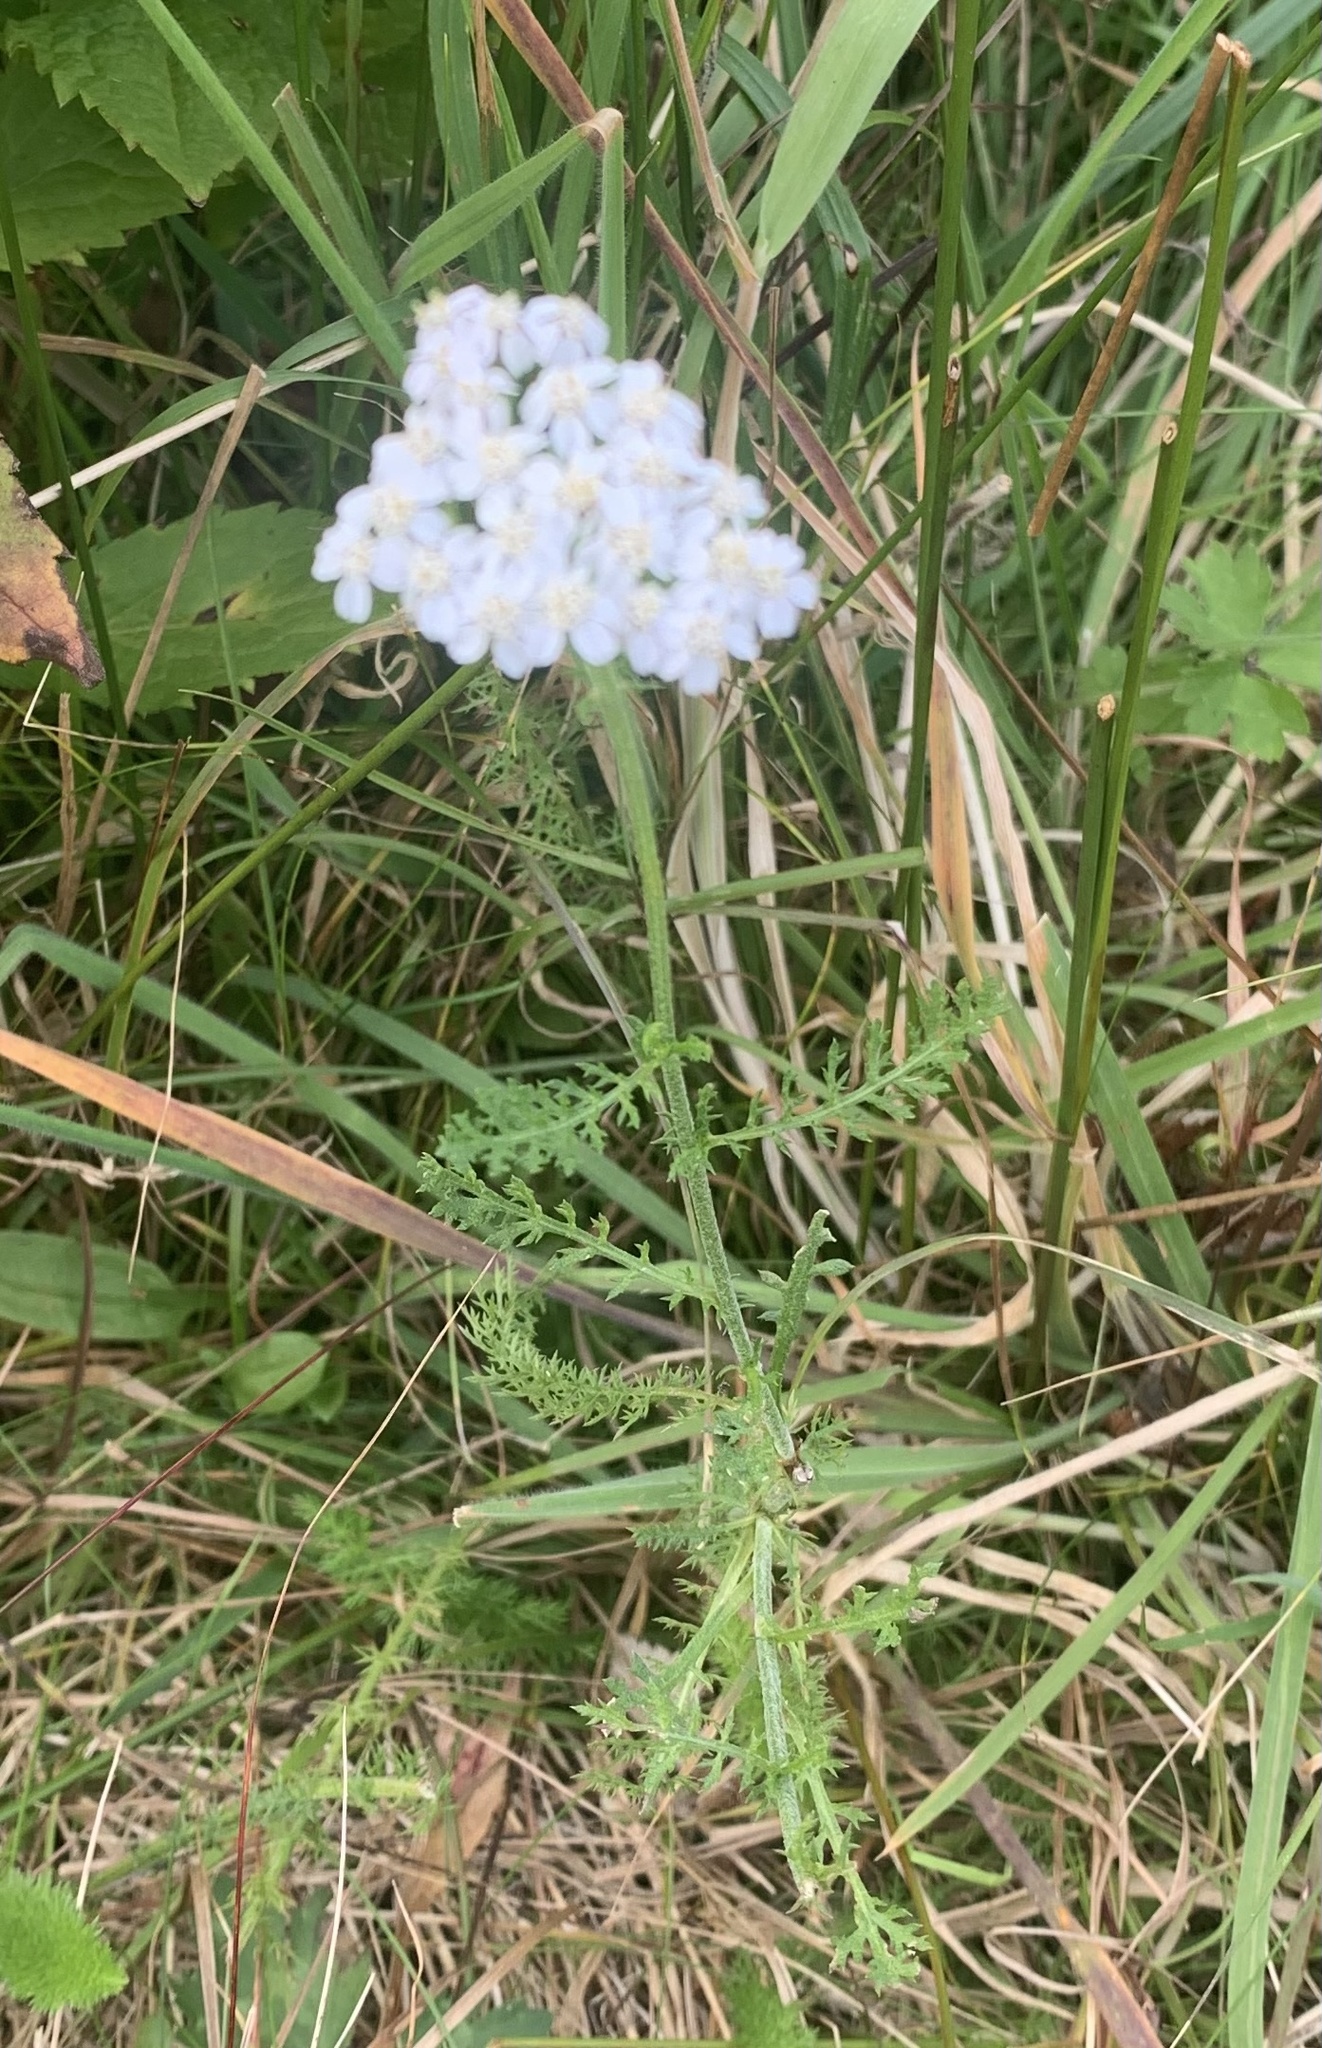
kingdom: Plantae
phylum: Tracheophyta
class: Magnoliopsida
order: Asterales
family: Asteraceae
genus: Achillea
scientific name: Achillea millefolium
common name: Yarrow
